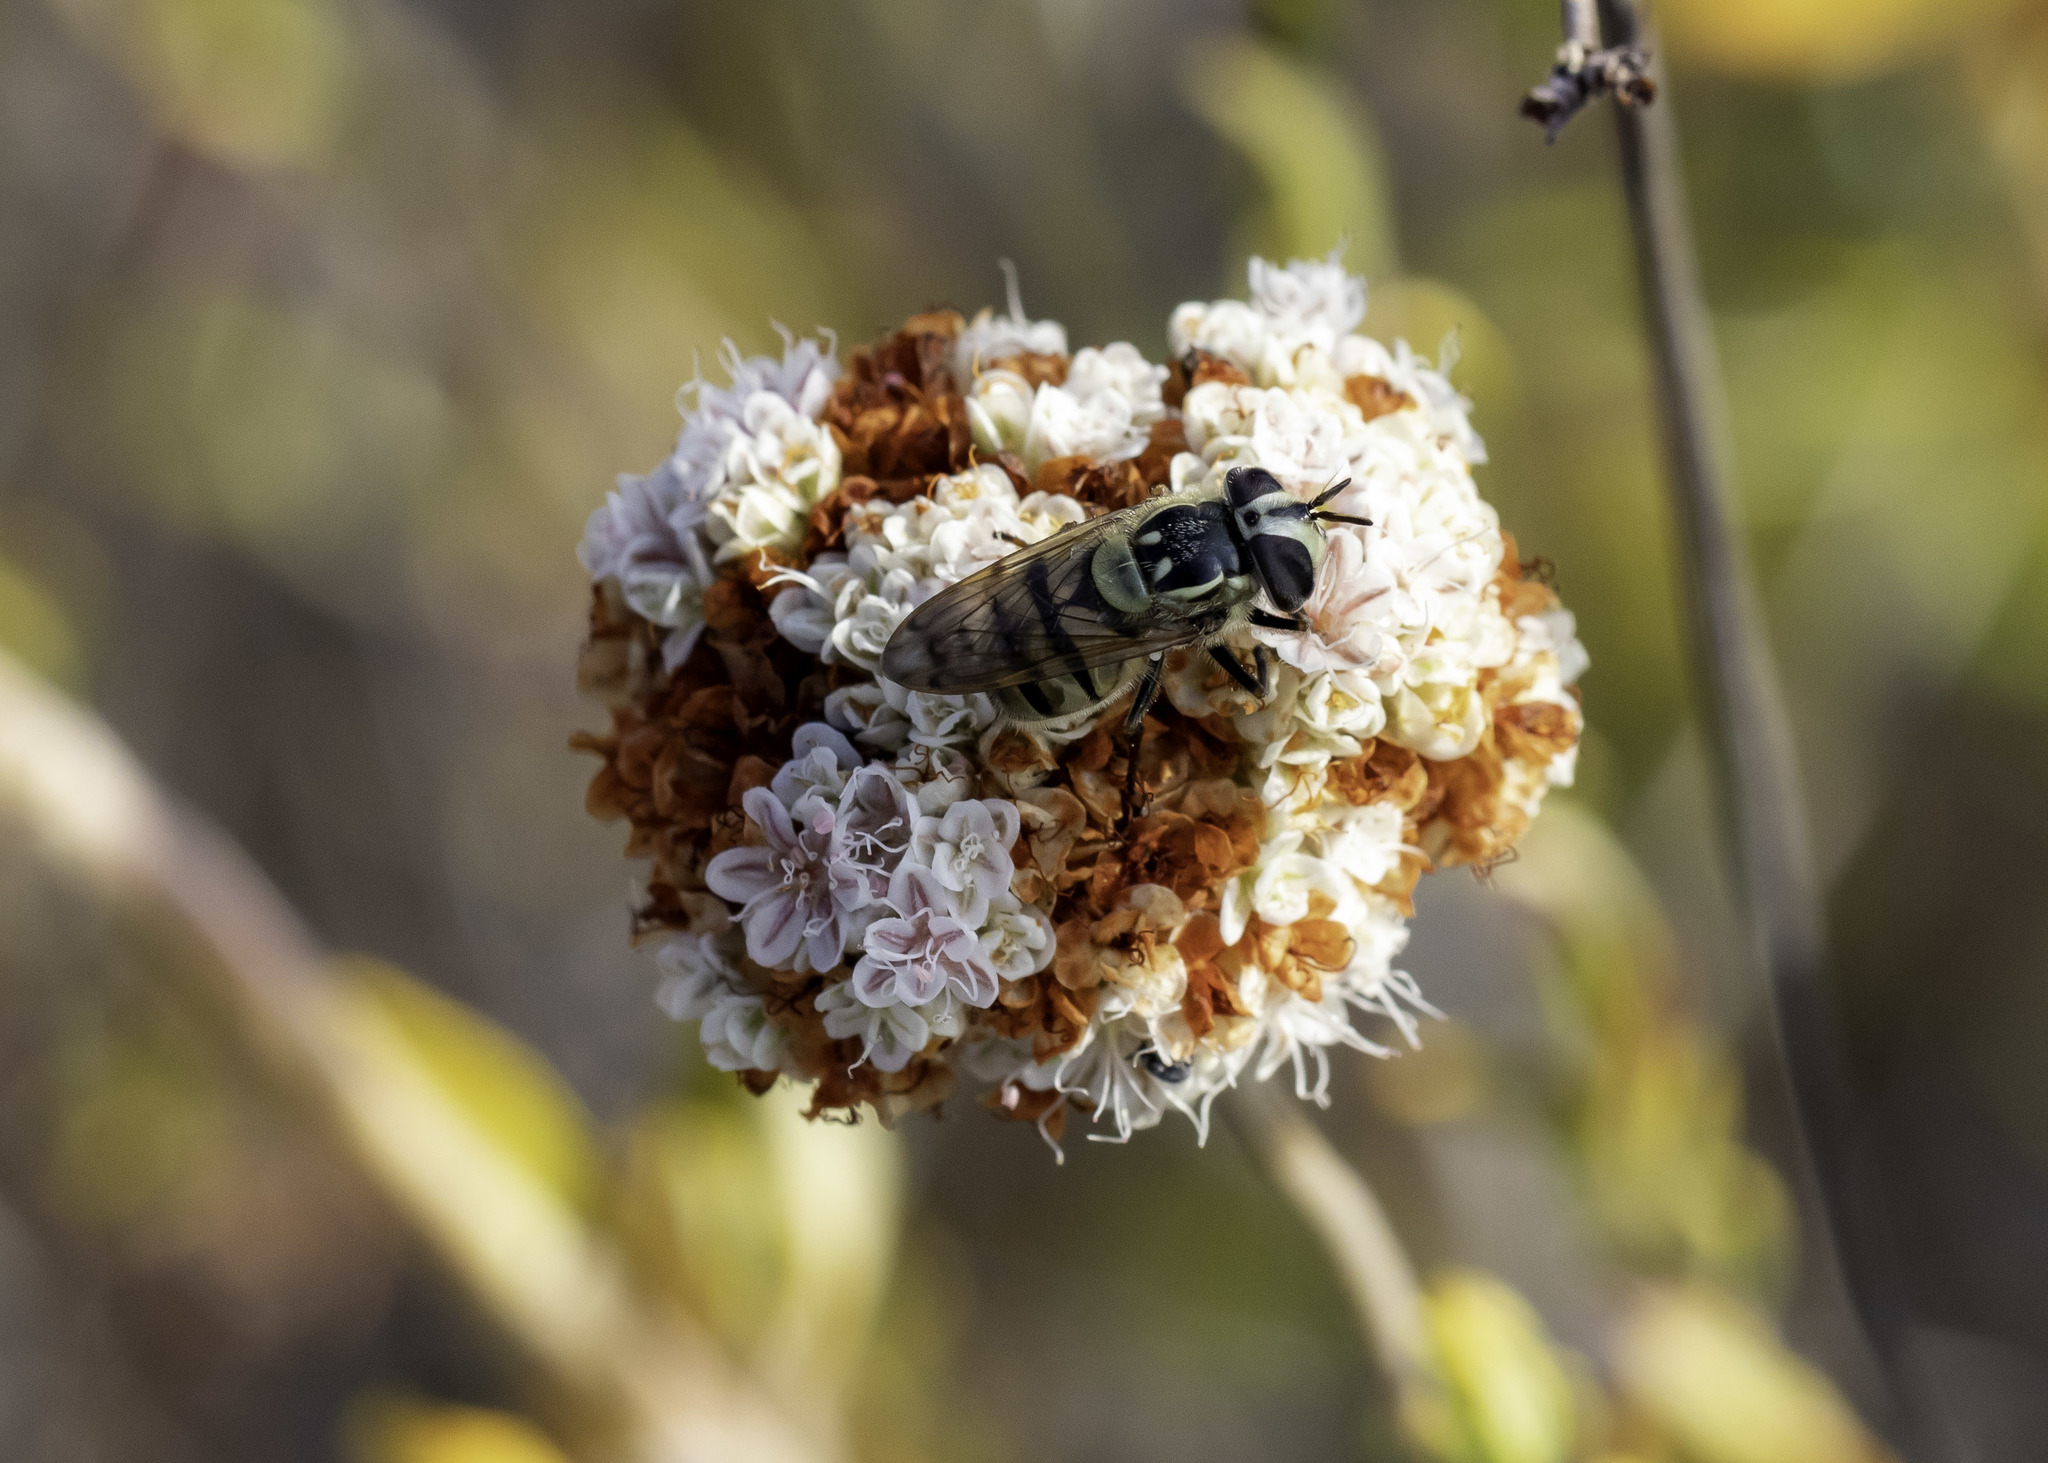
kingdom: Animalia
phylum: Arthropoda
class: Insecta
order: Diptera
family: Syrphidae
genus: Copestylum
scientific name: Copestylum fraudulentum
